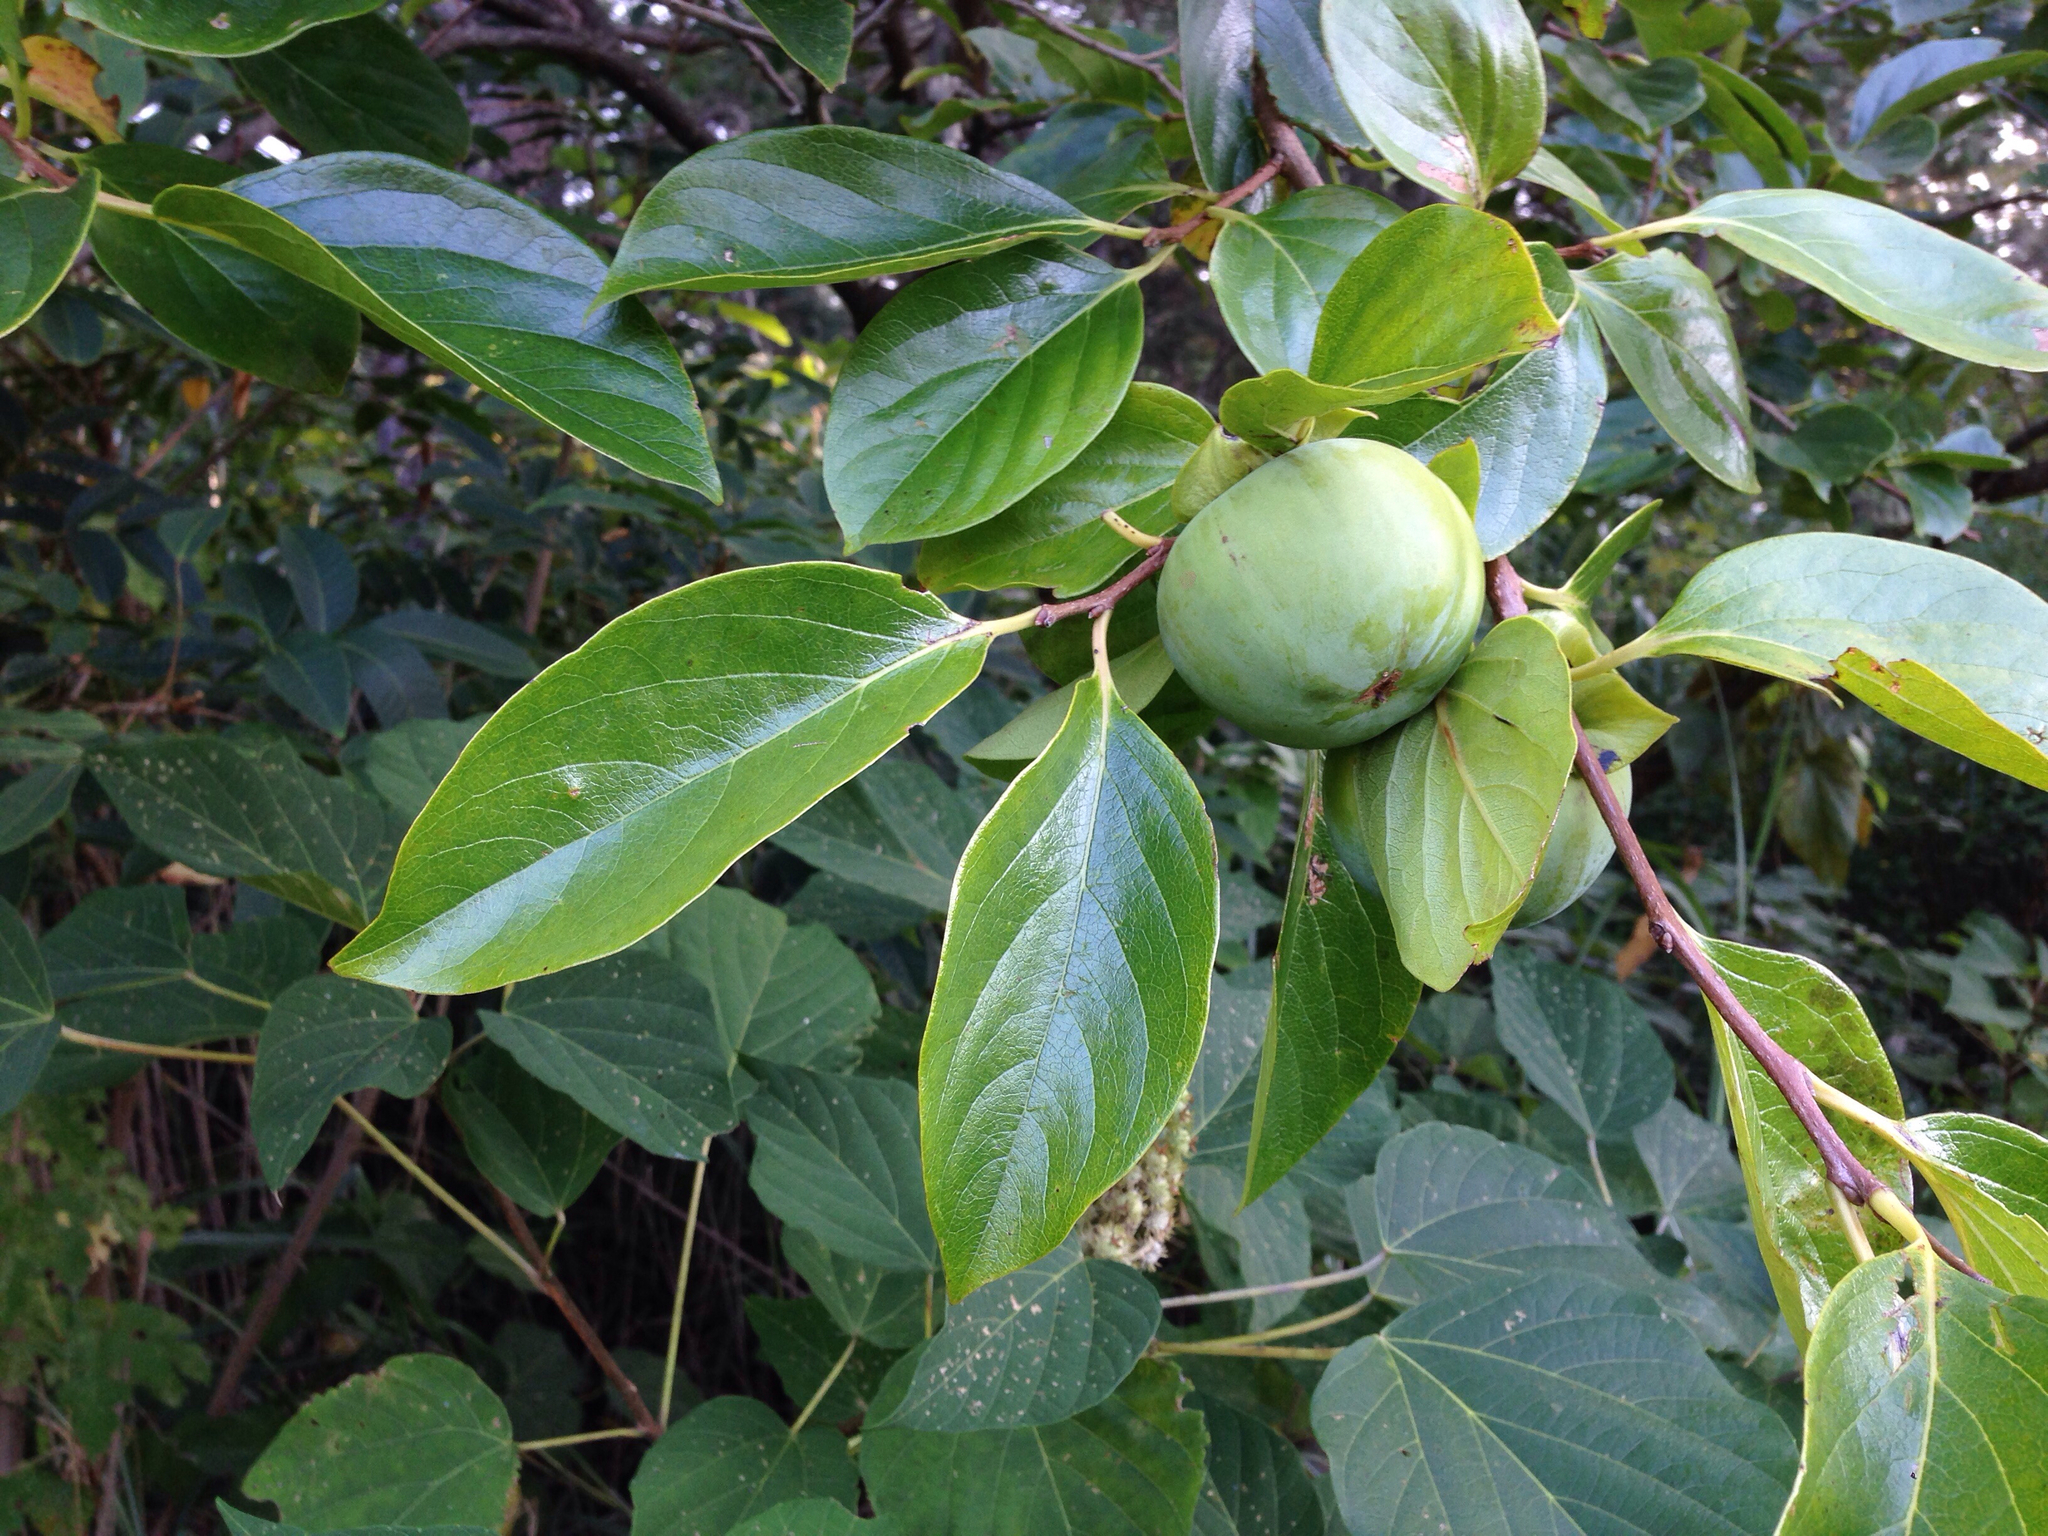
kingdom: Plantae
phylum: Tracheophyta
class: Magnoliopsida
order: Ericales
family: Ebenaceae
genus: Diospyros
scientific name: Diospyros kaki
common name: Persimmon
